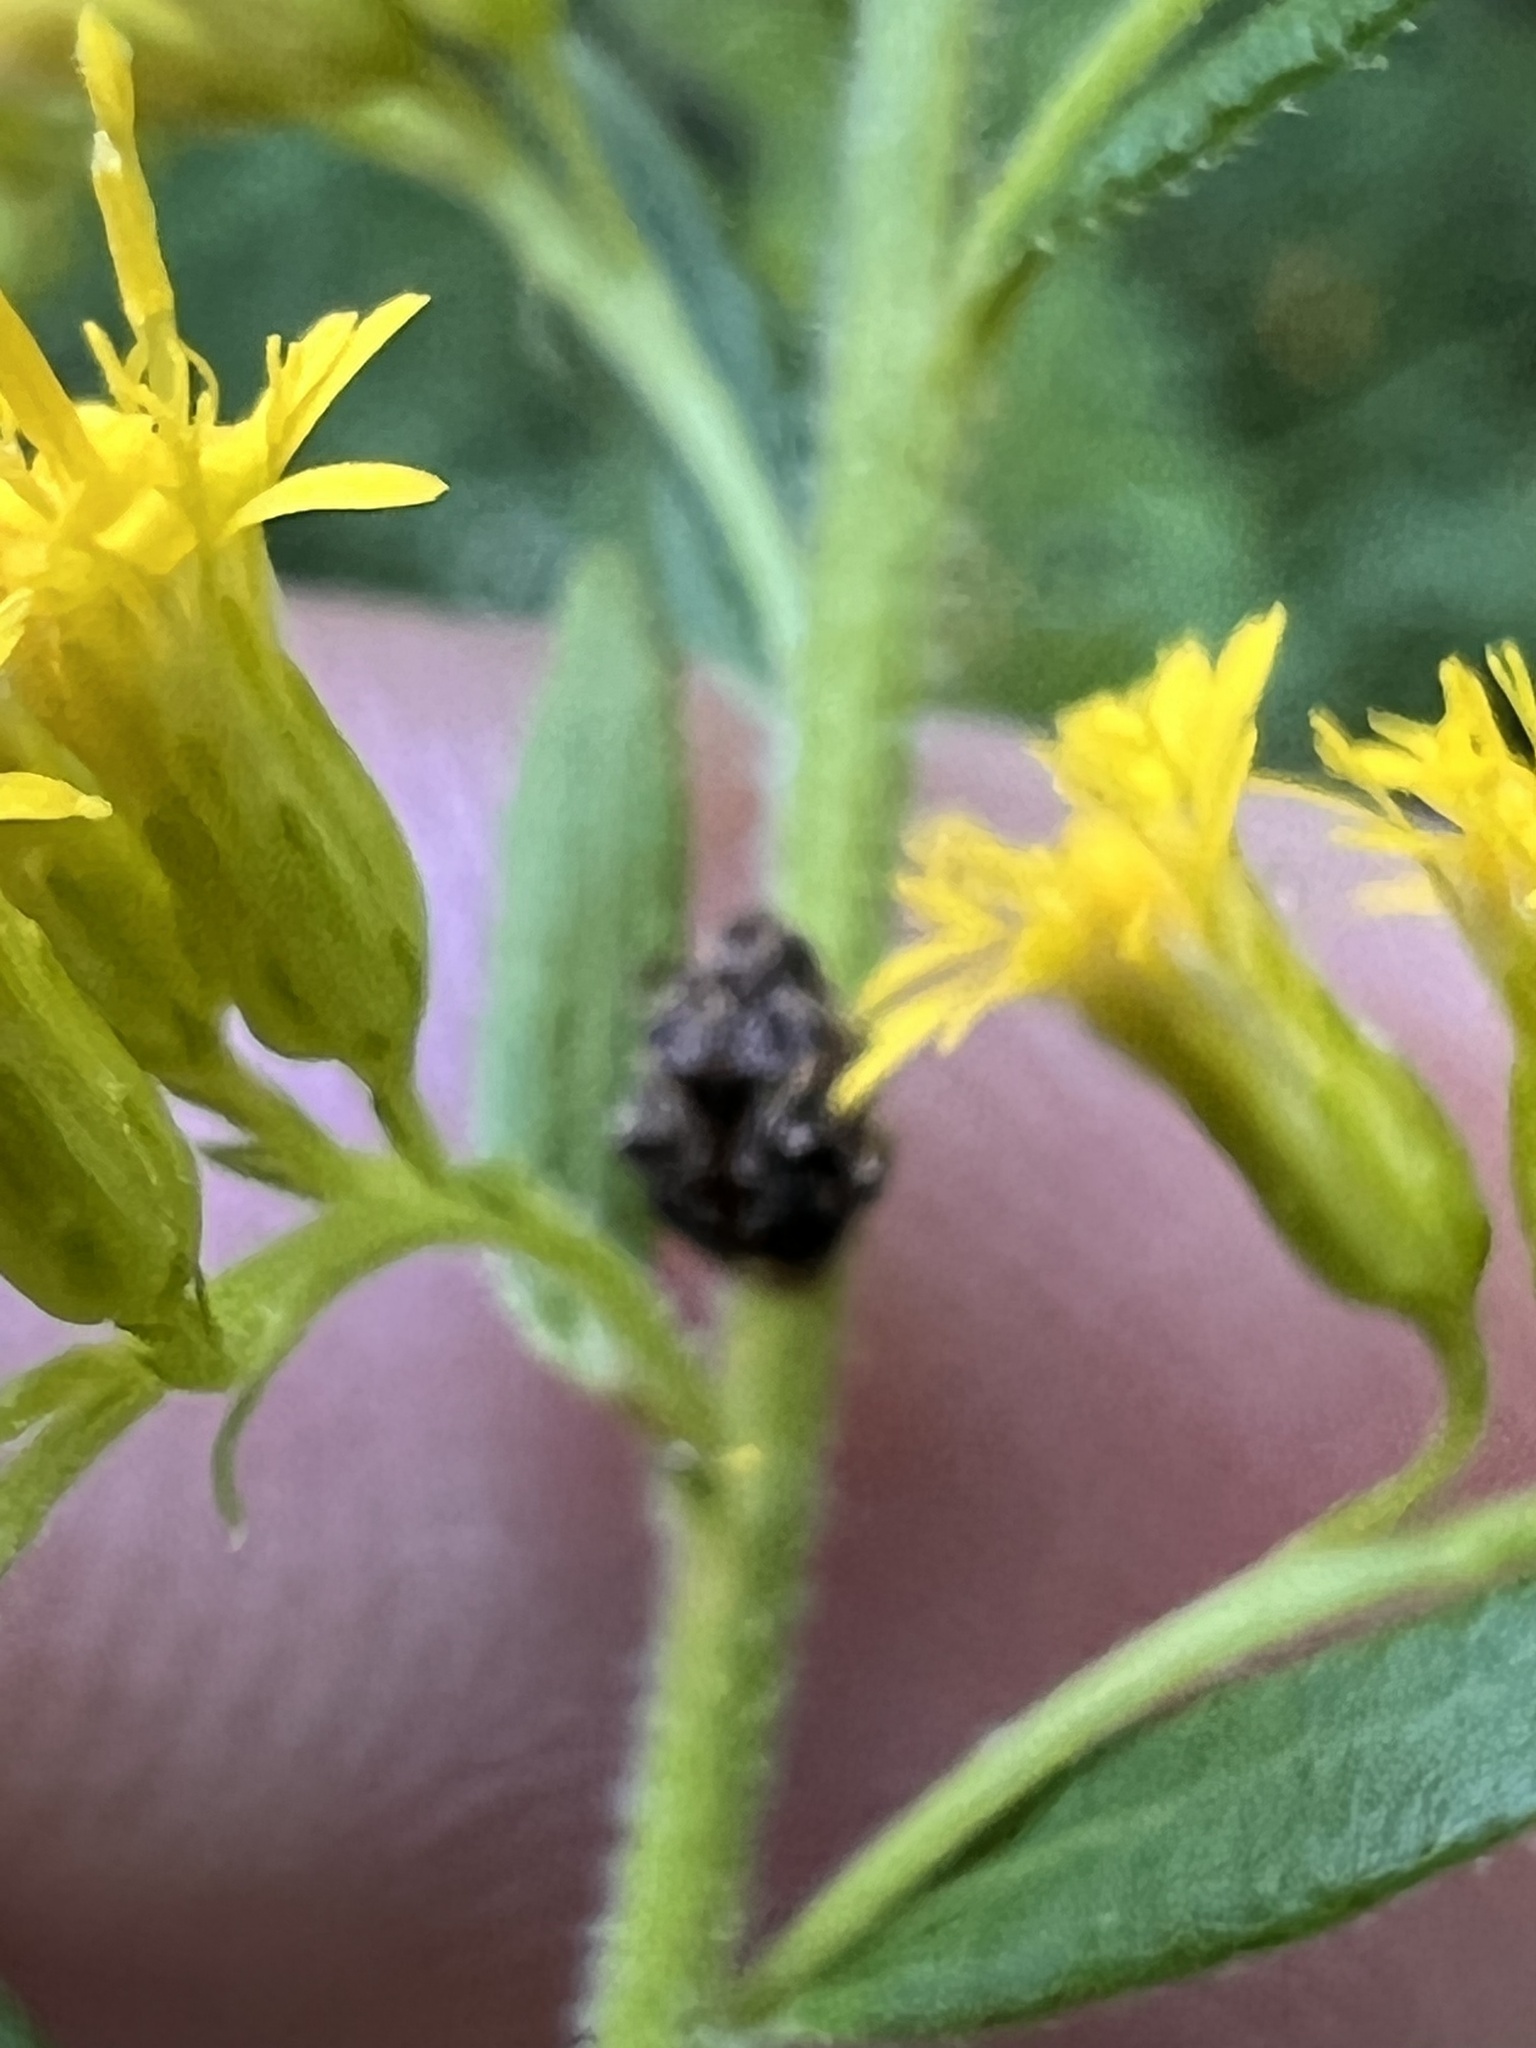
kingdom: Animalia
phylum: Arthropoda
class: Insecta
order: Coleoptera
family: Chrysomelidae
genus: Gibbobruchus
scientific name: Gibbobruchus mimus
